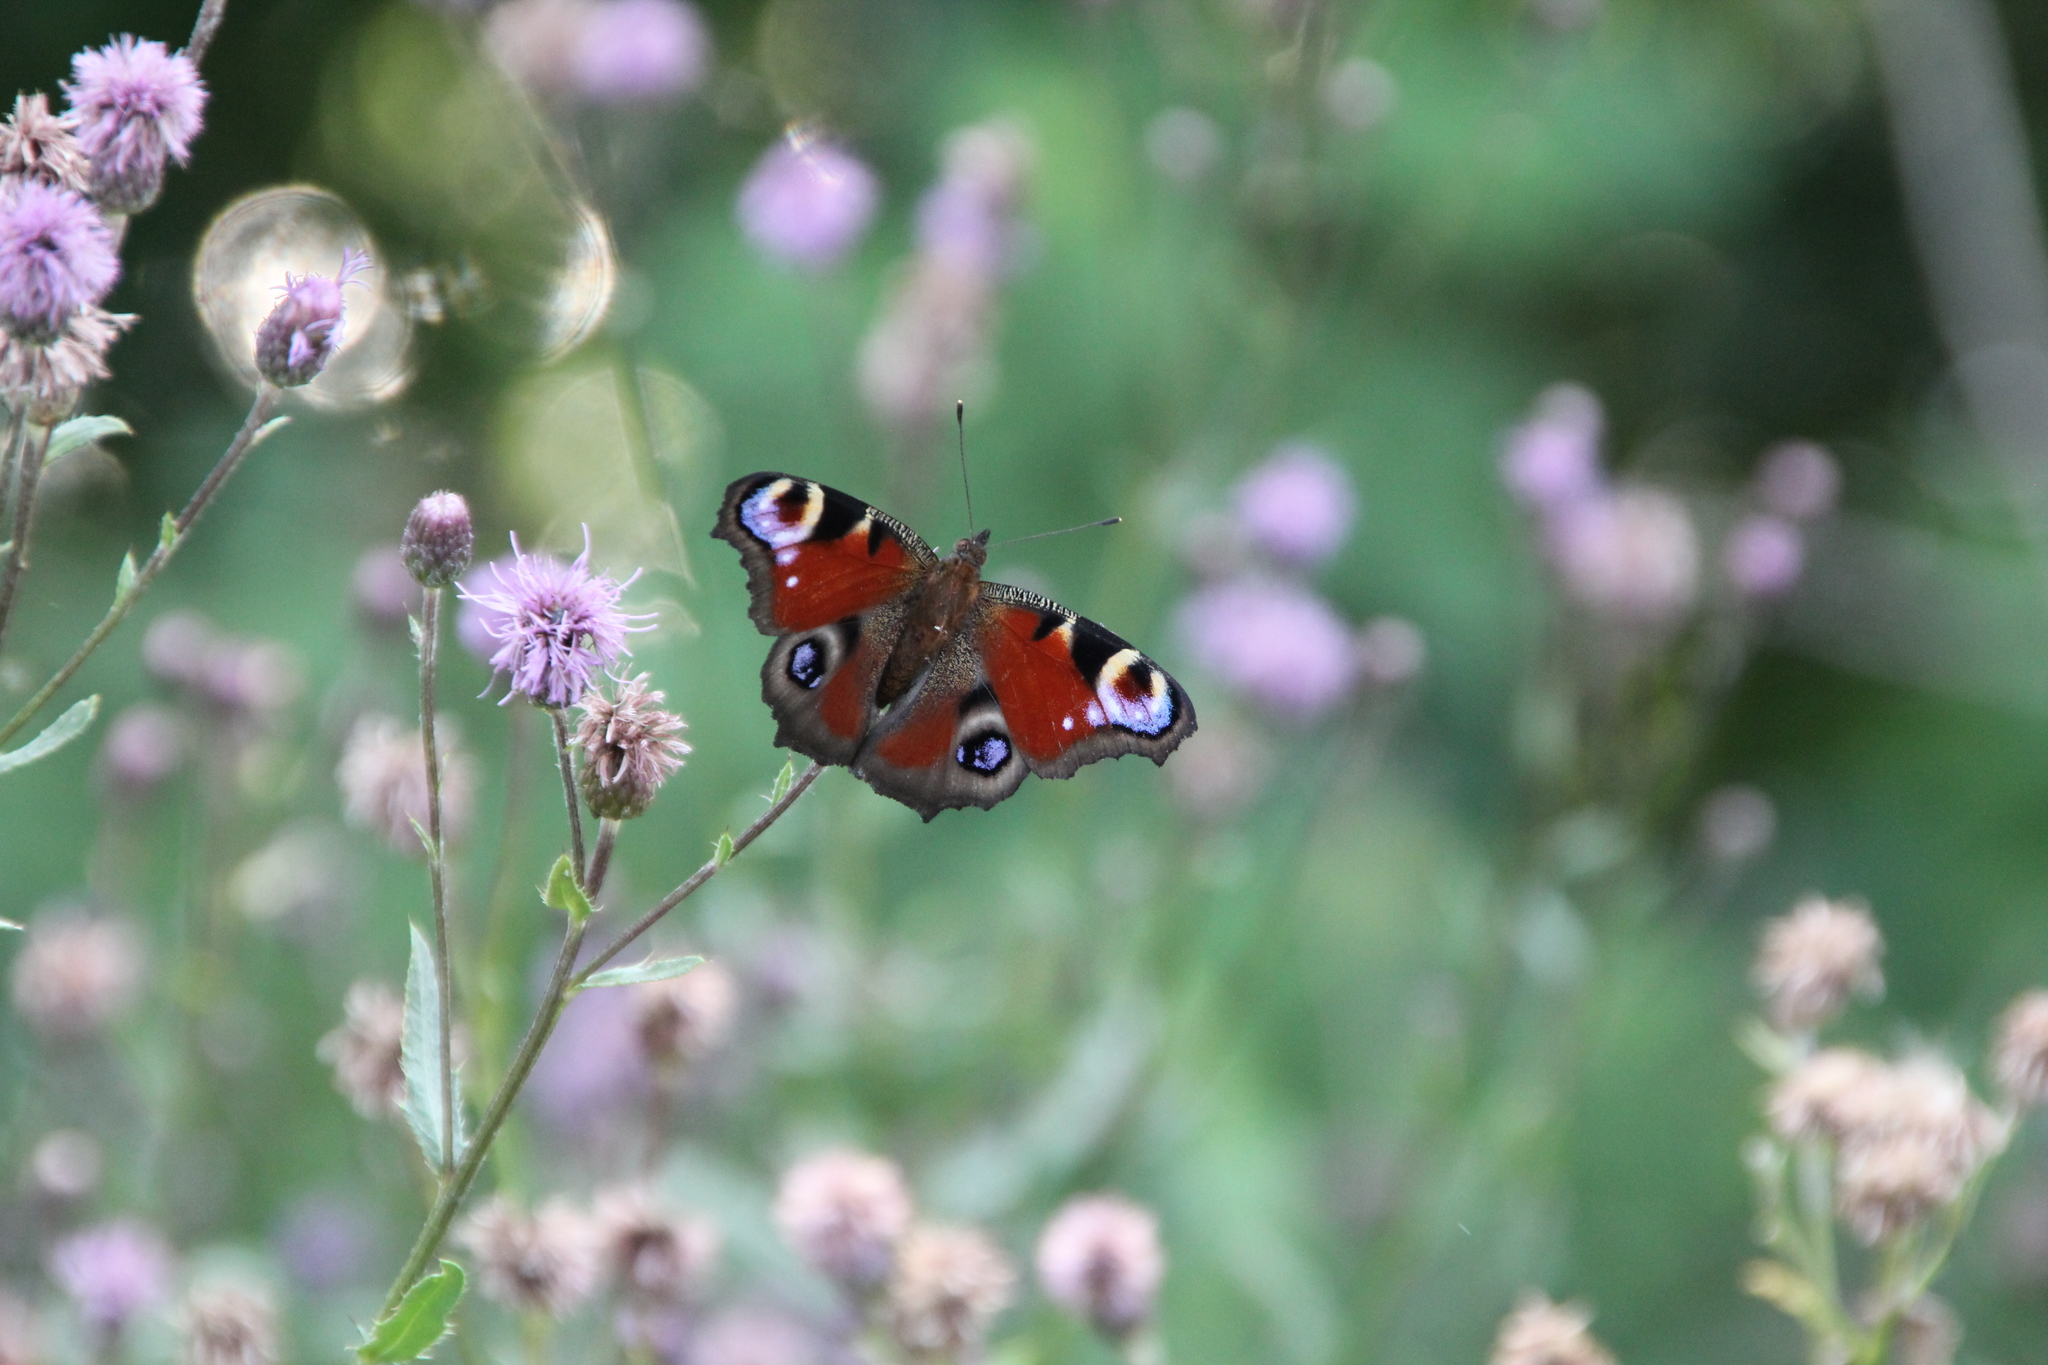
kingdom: Animalia
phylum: Arthropoda
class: Insecta
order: Lepidoptera
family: Nymphalidae
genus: Aglais
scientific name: Aglais io
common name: Peacock
